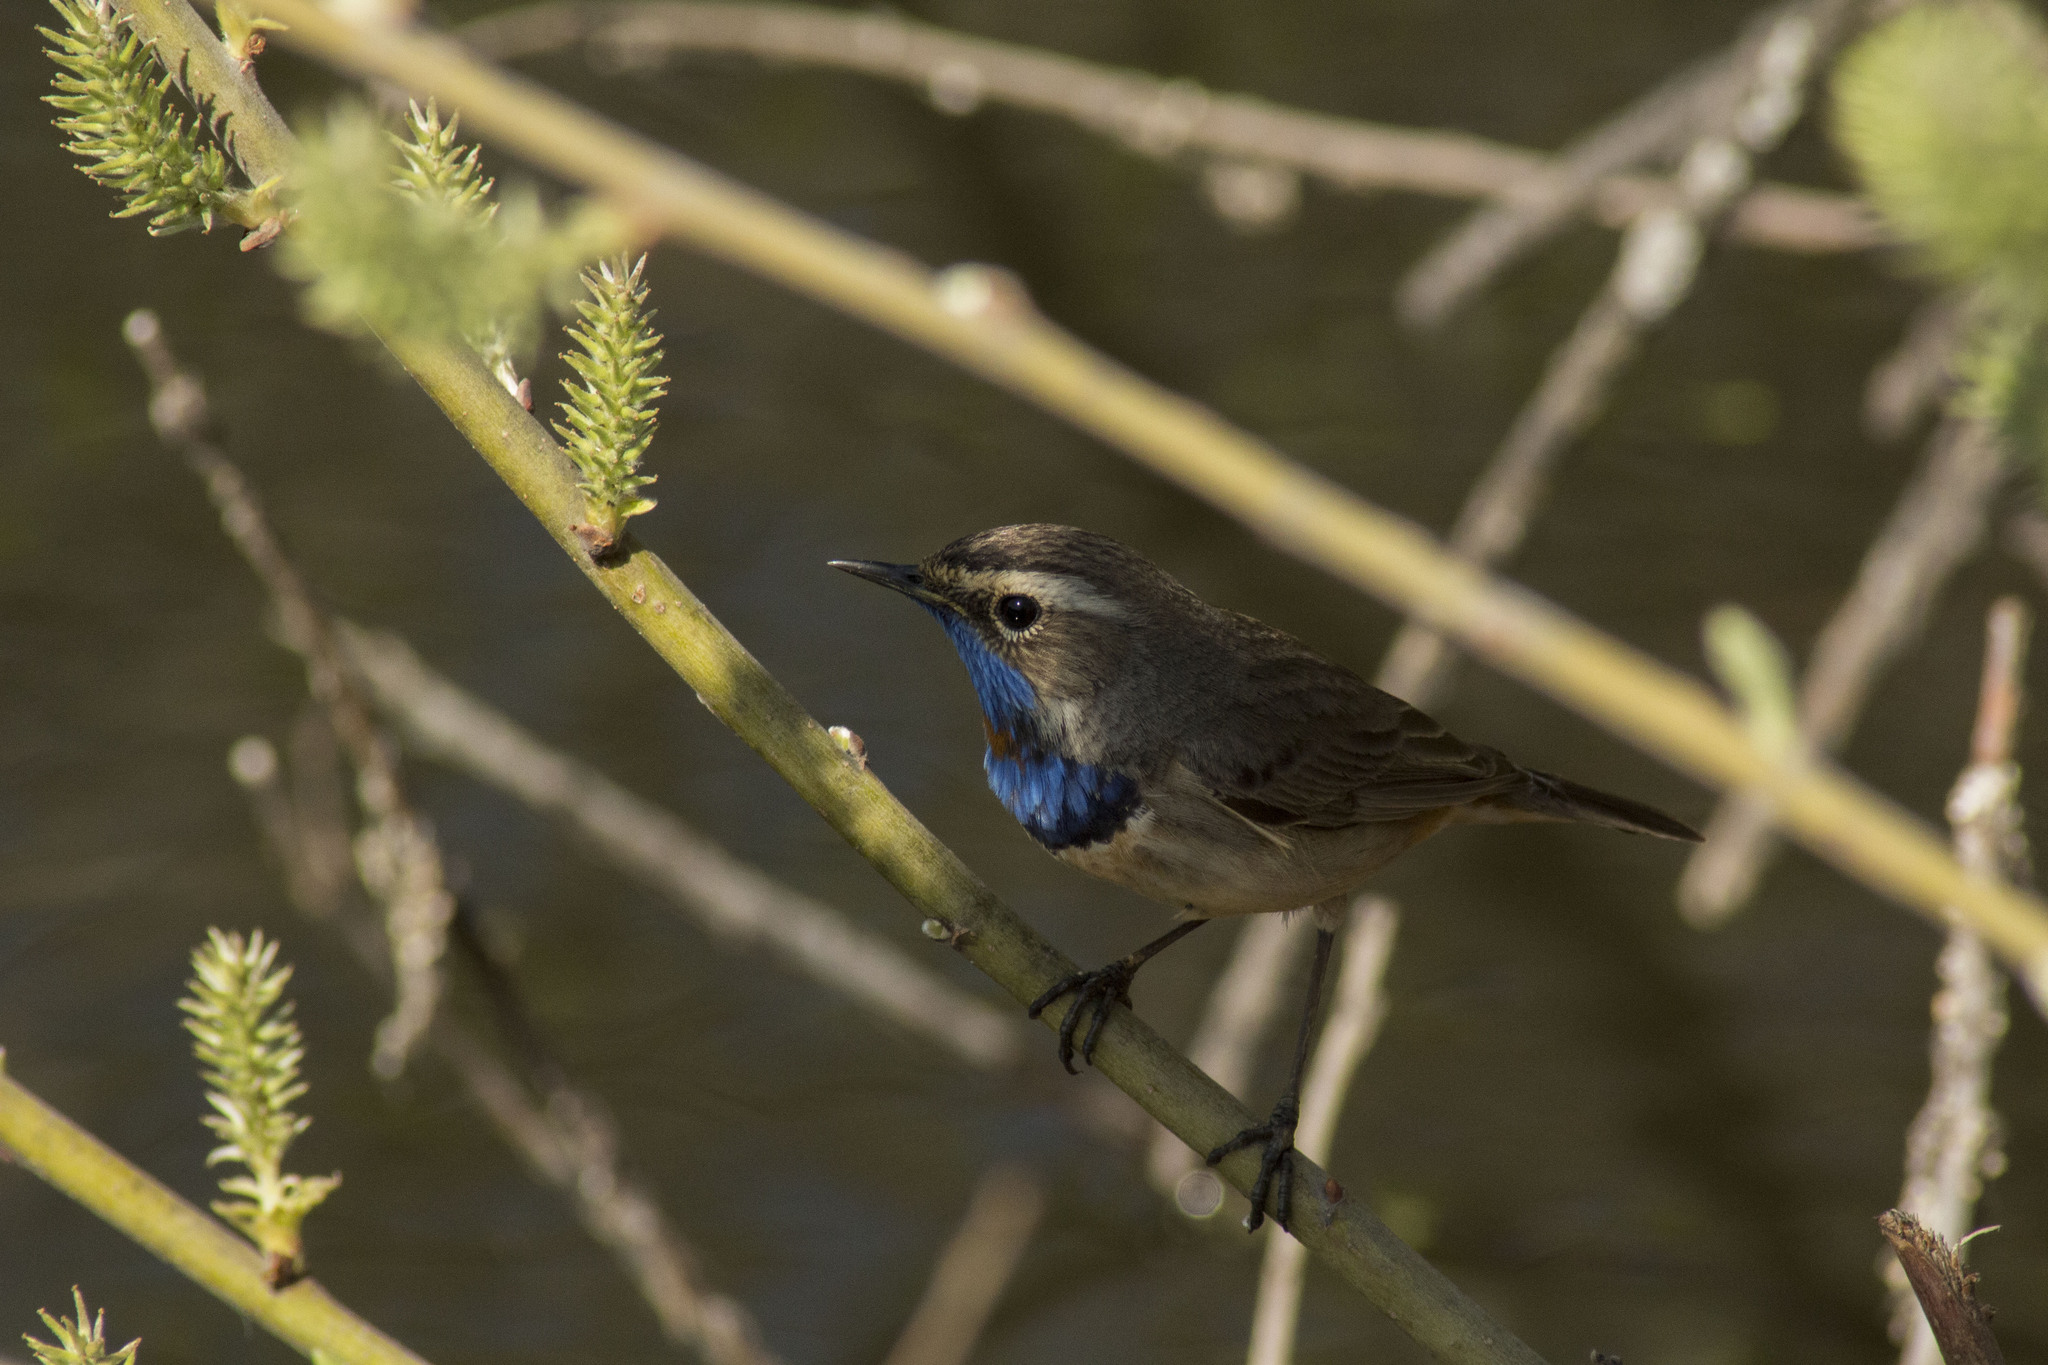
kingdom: Animalia
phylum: Chordata
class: Aves
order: Passeriformes
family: Muscicapidae
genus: Luscinia
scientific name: Luscinia svecica
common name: Bluethroat
